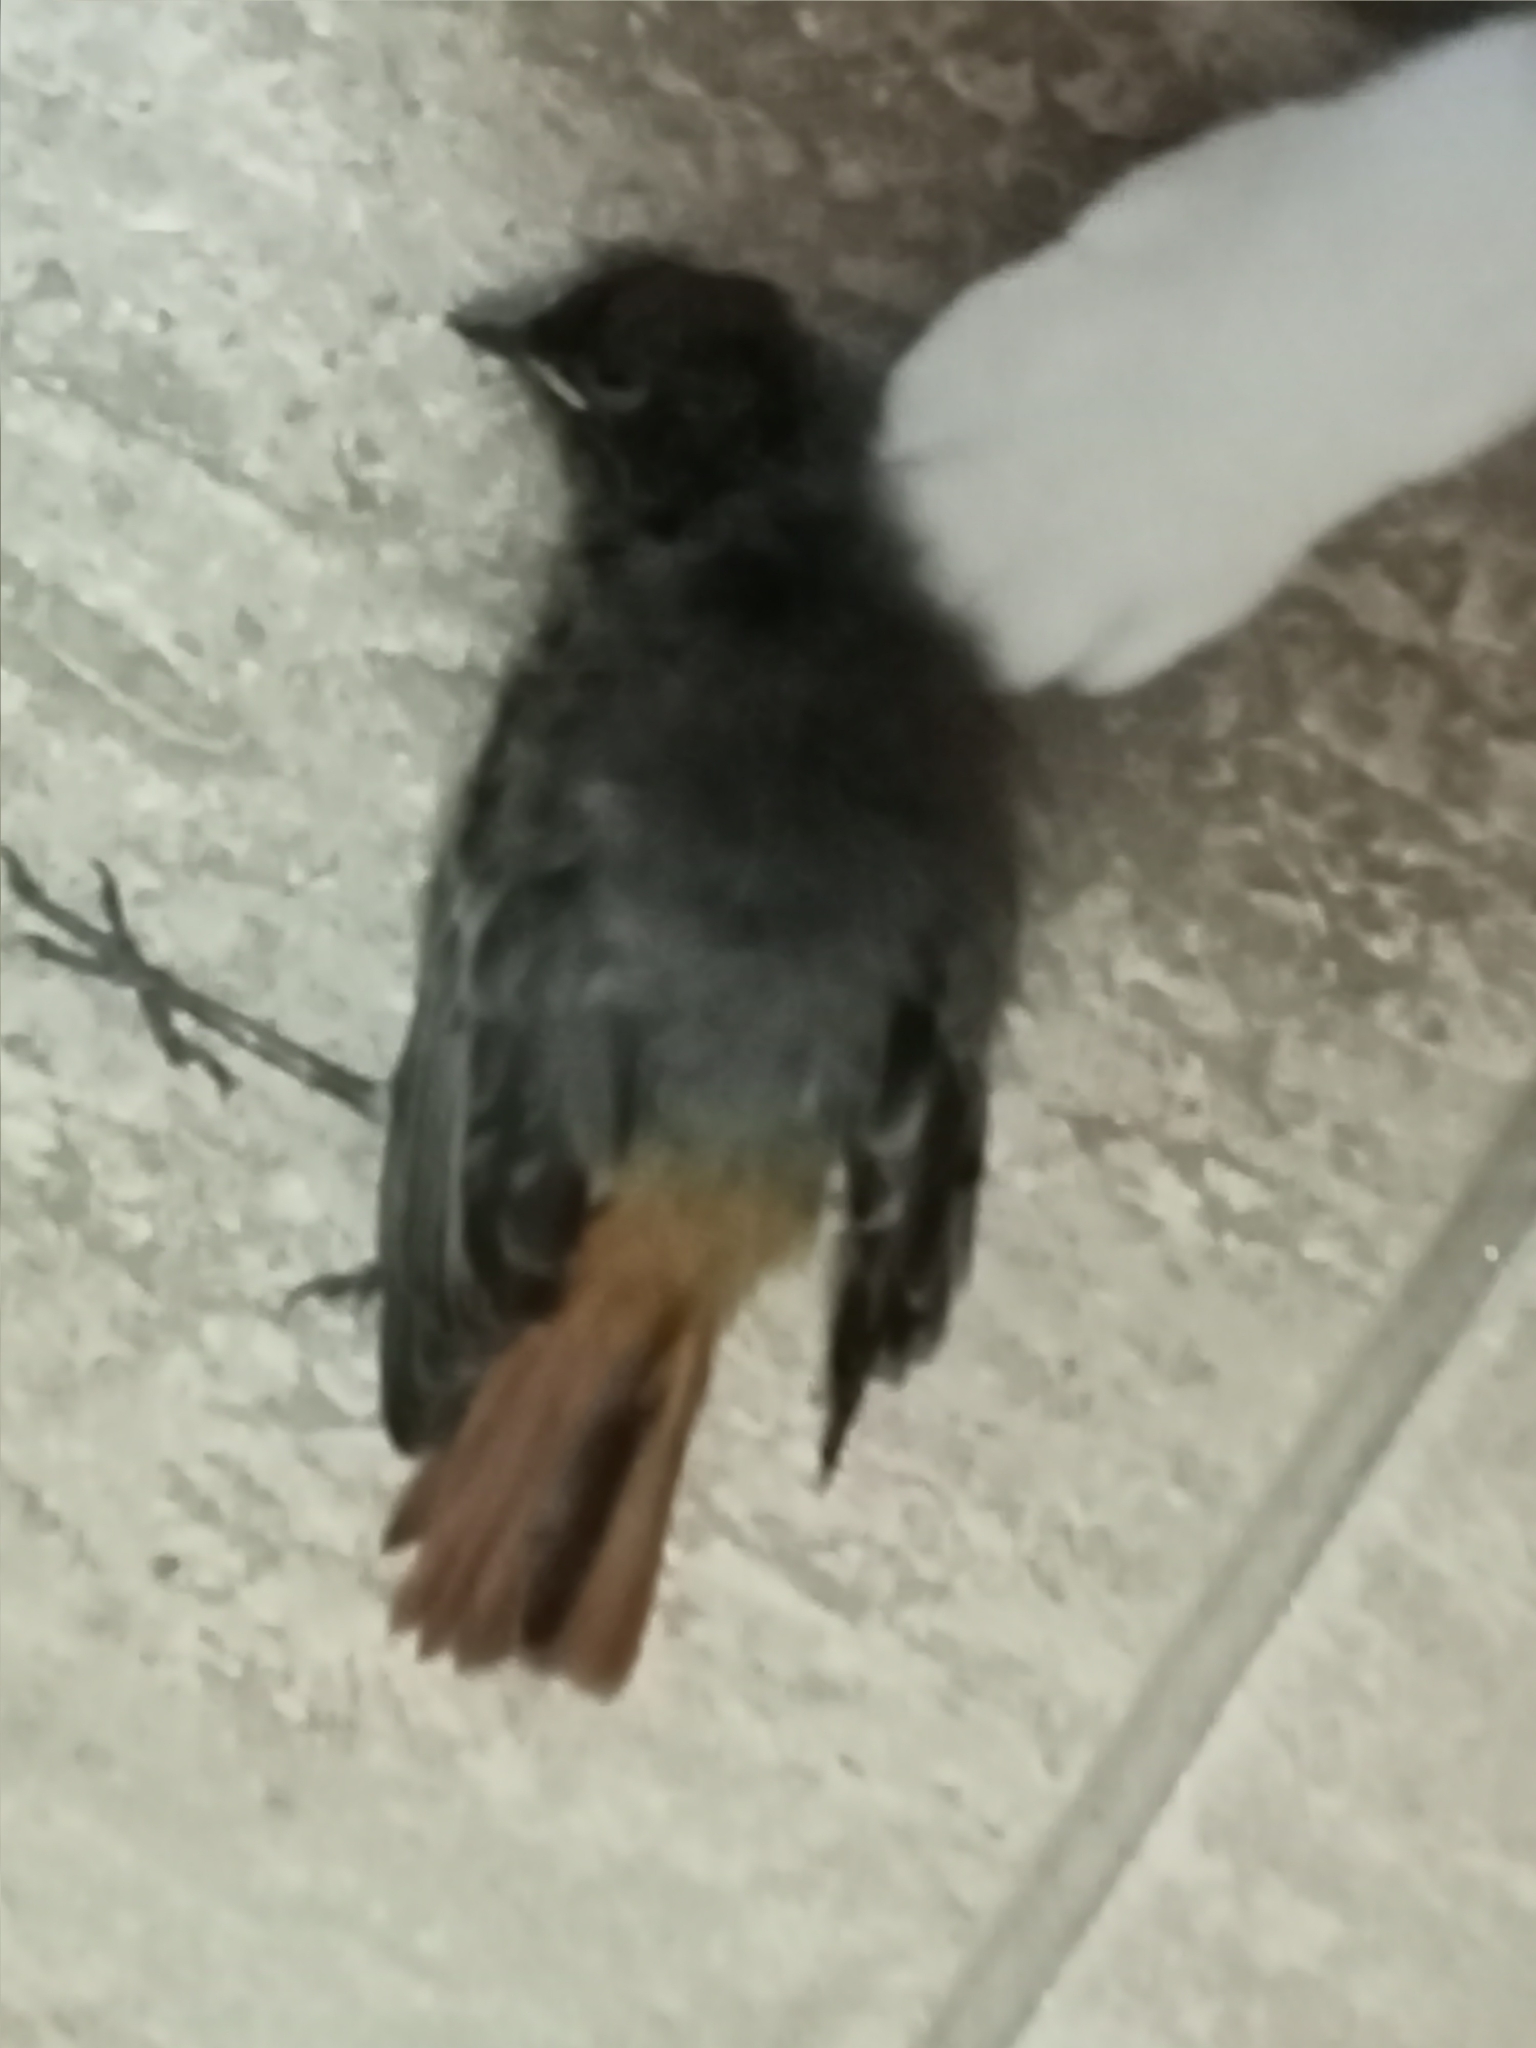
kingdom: Animalia
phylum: Chordata
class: Aves
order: Passeriformes
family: Muscicapidae
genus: Phoenicurus
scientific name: Phoenicurus ochruros
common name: Black redstart
